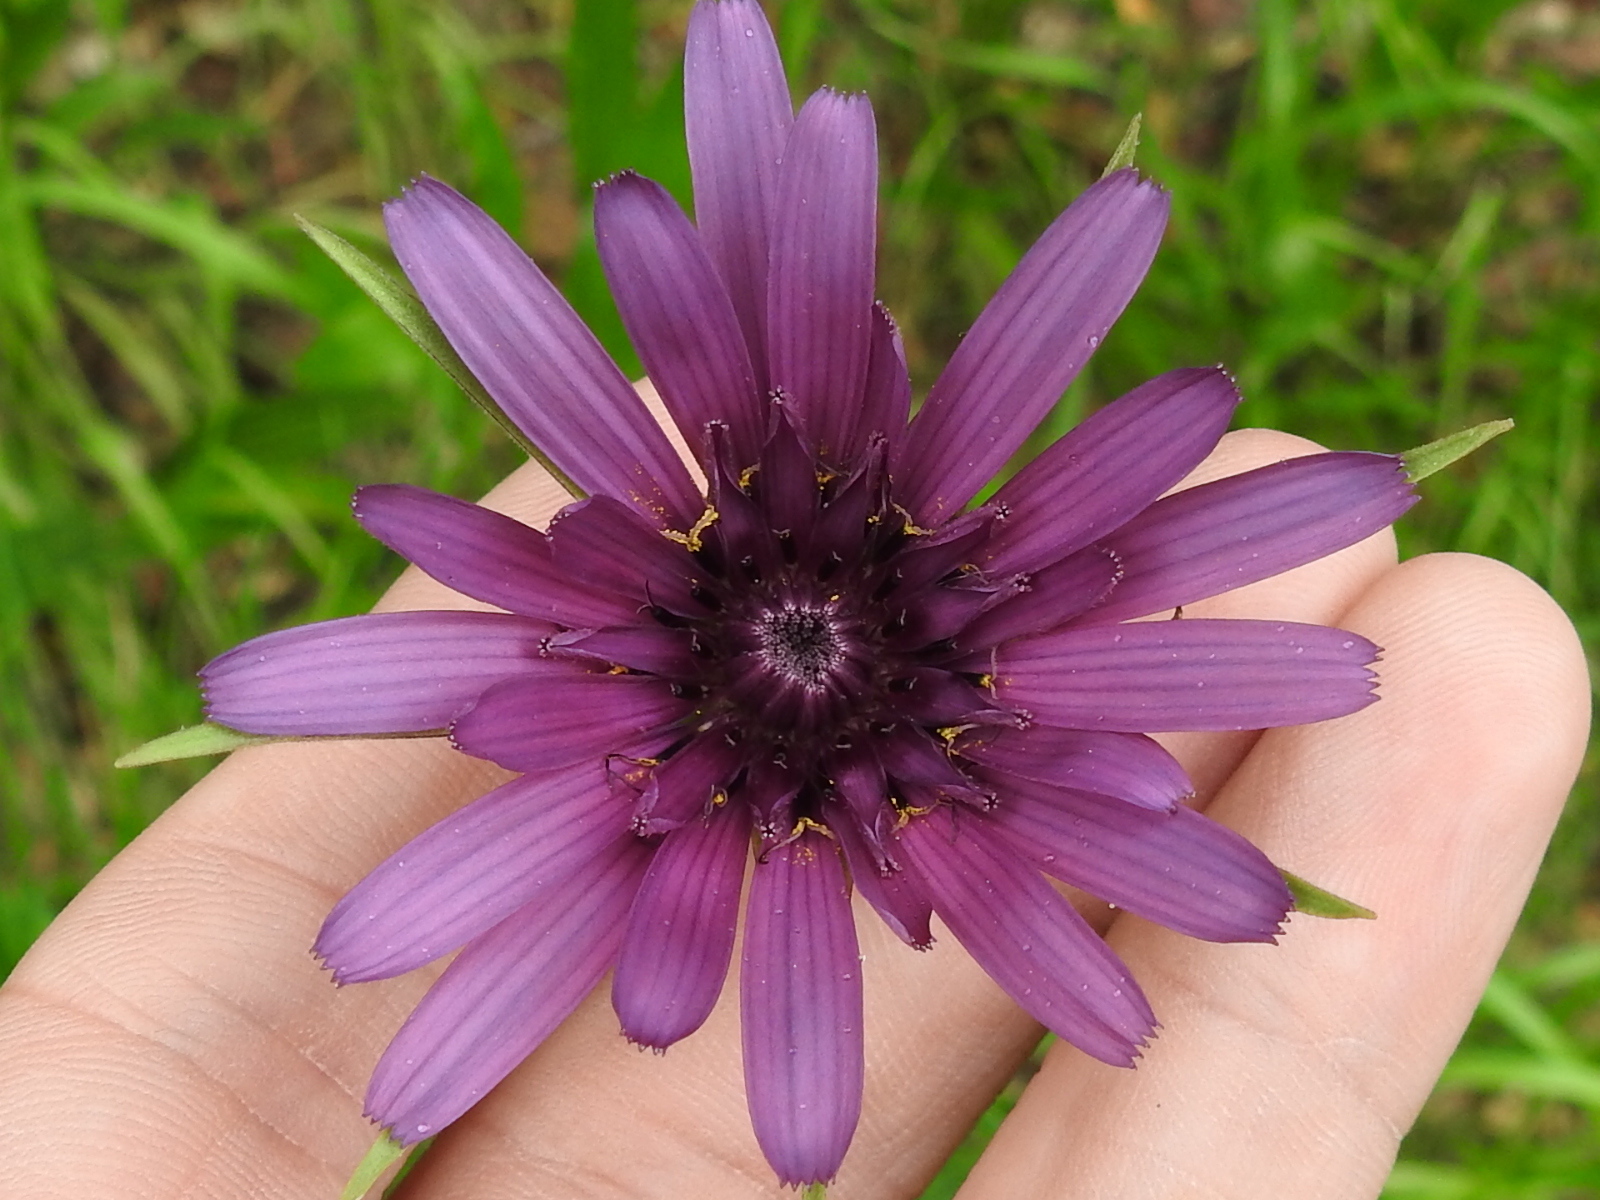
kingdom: Plantae
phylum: Tracheophyta
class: Magnoliopsida
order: Asterales
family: Asteraceae
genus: Tragopogon
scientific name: Tragopogon porrifolius
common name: Salsify
